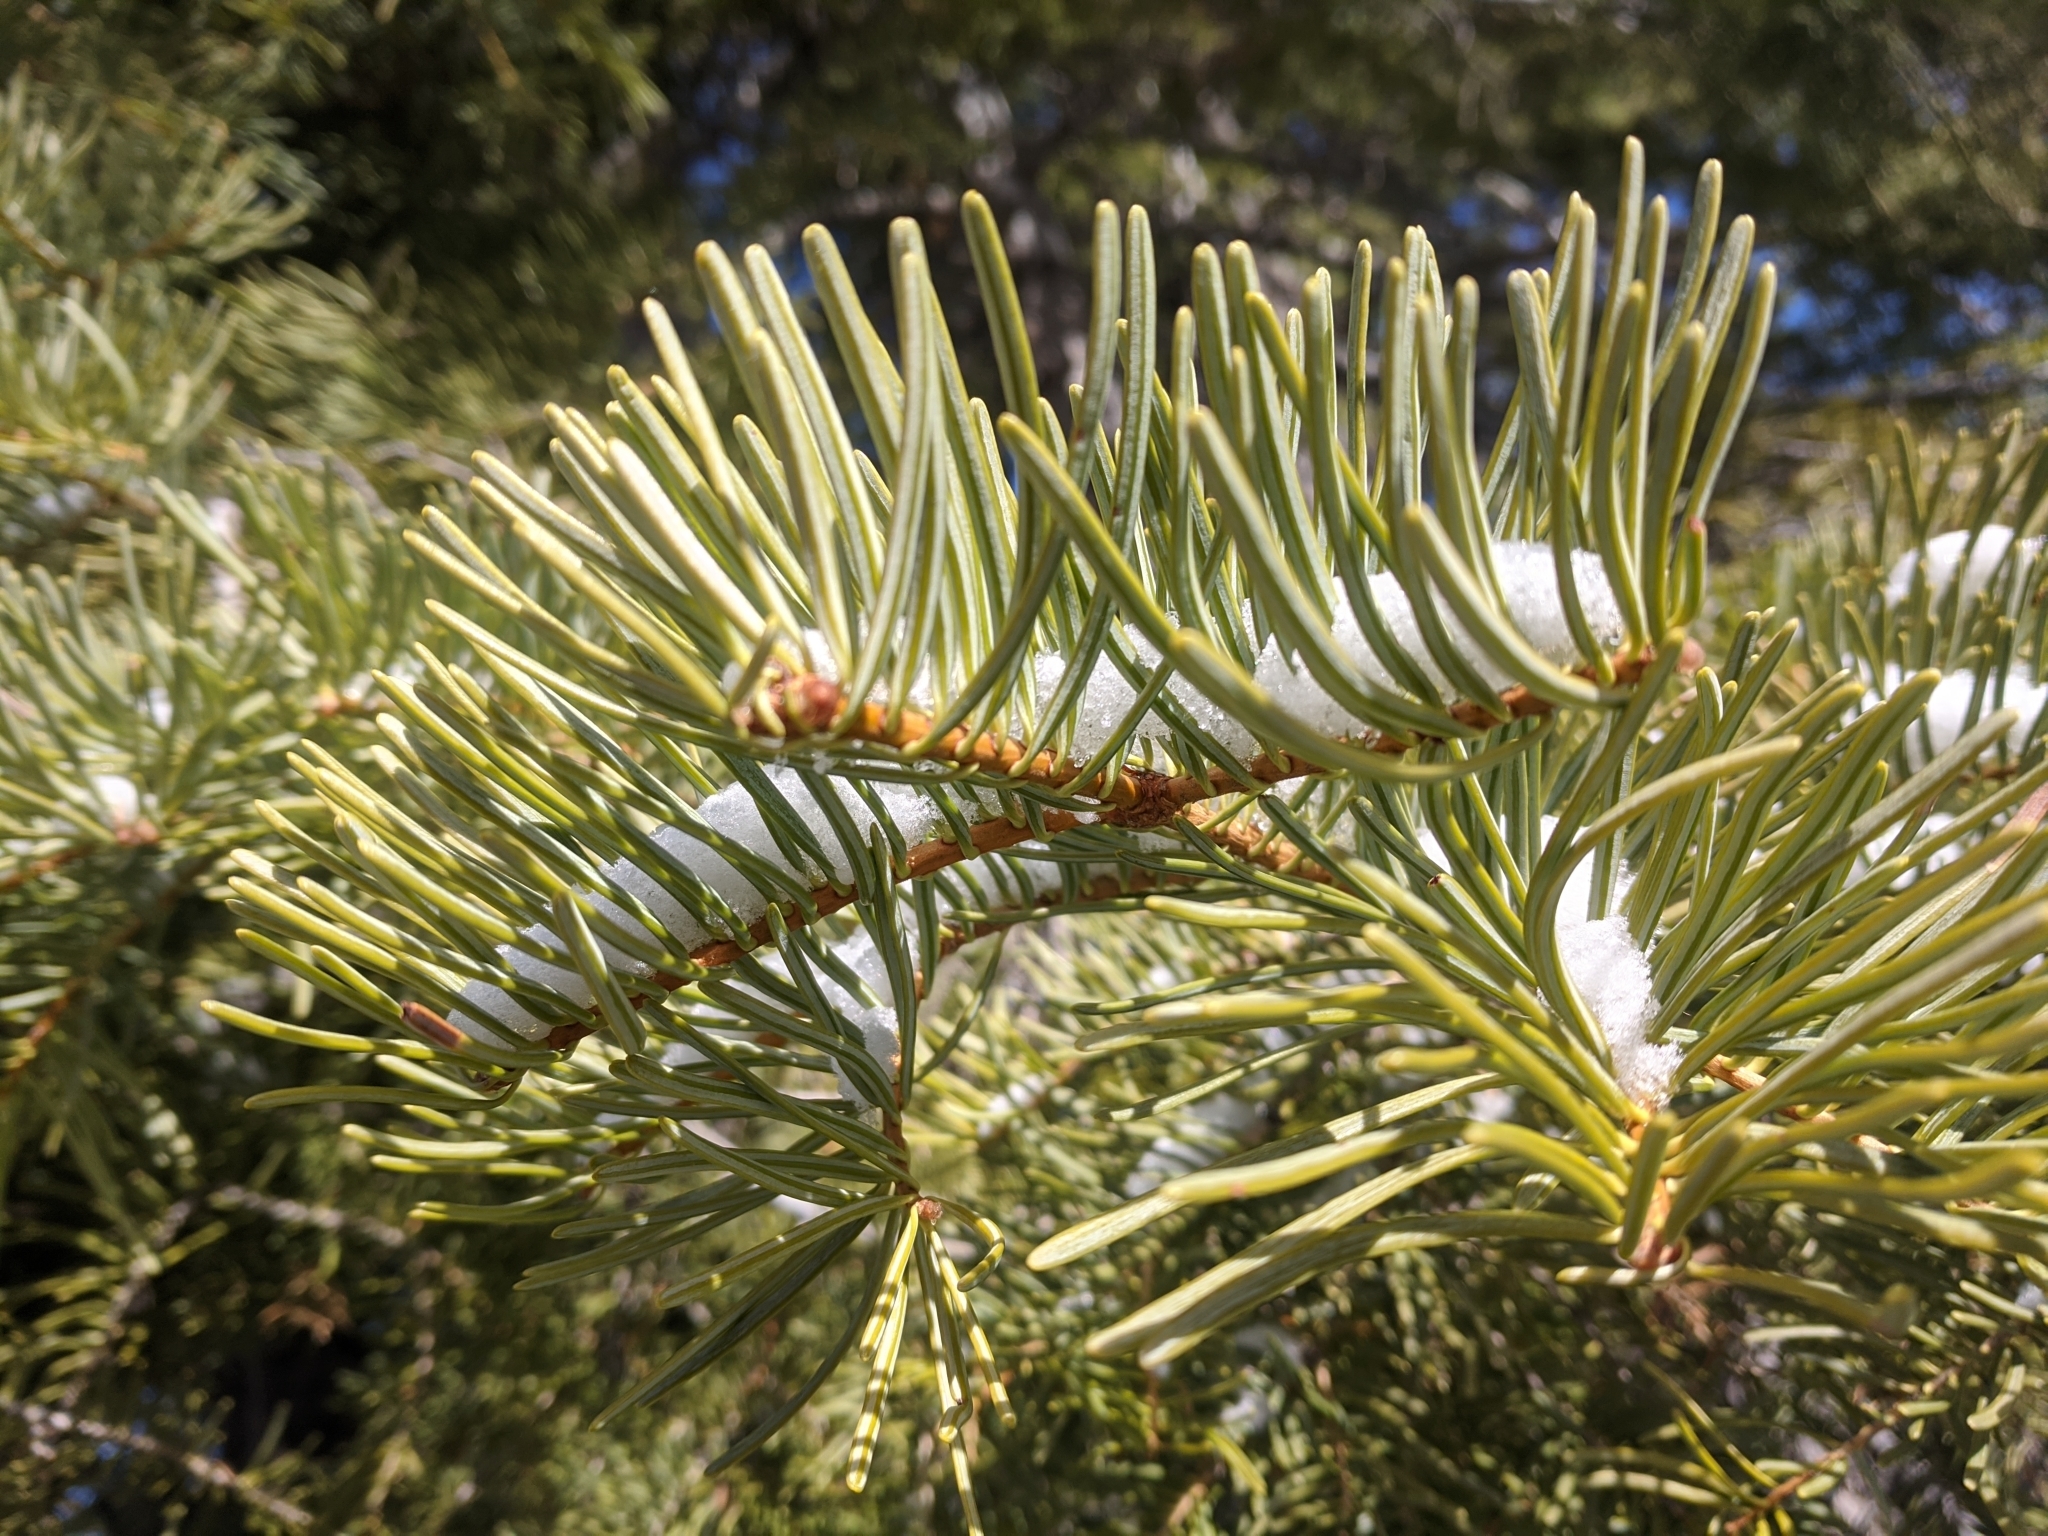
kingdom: Plantae
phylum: Tracheophyta
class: Pinopsida
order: Pinales
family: Pinaceae
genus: Abies
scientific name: Abies concolor
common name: Colorado fir
